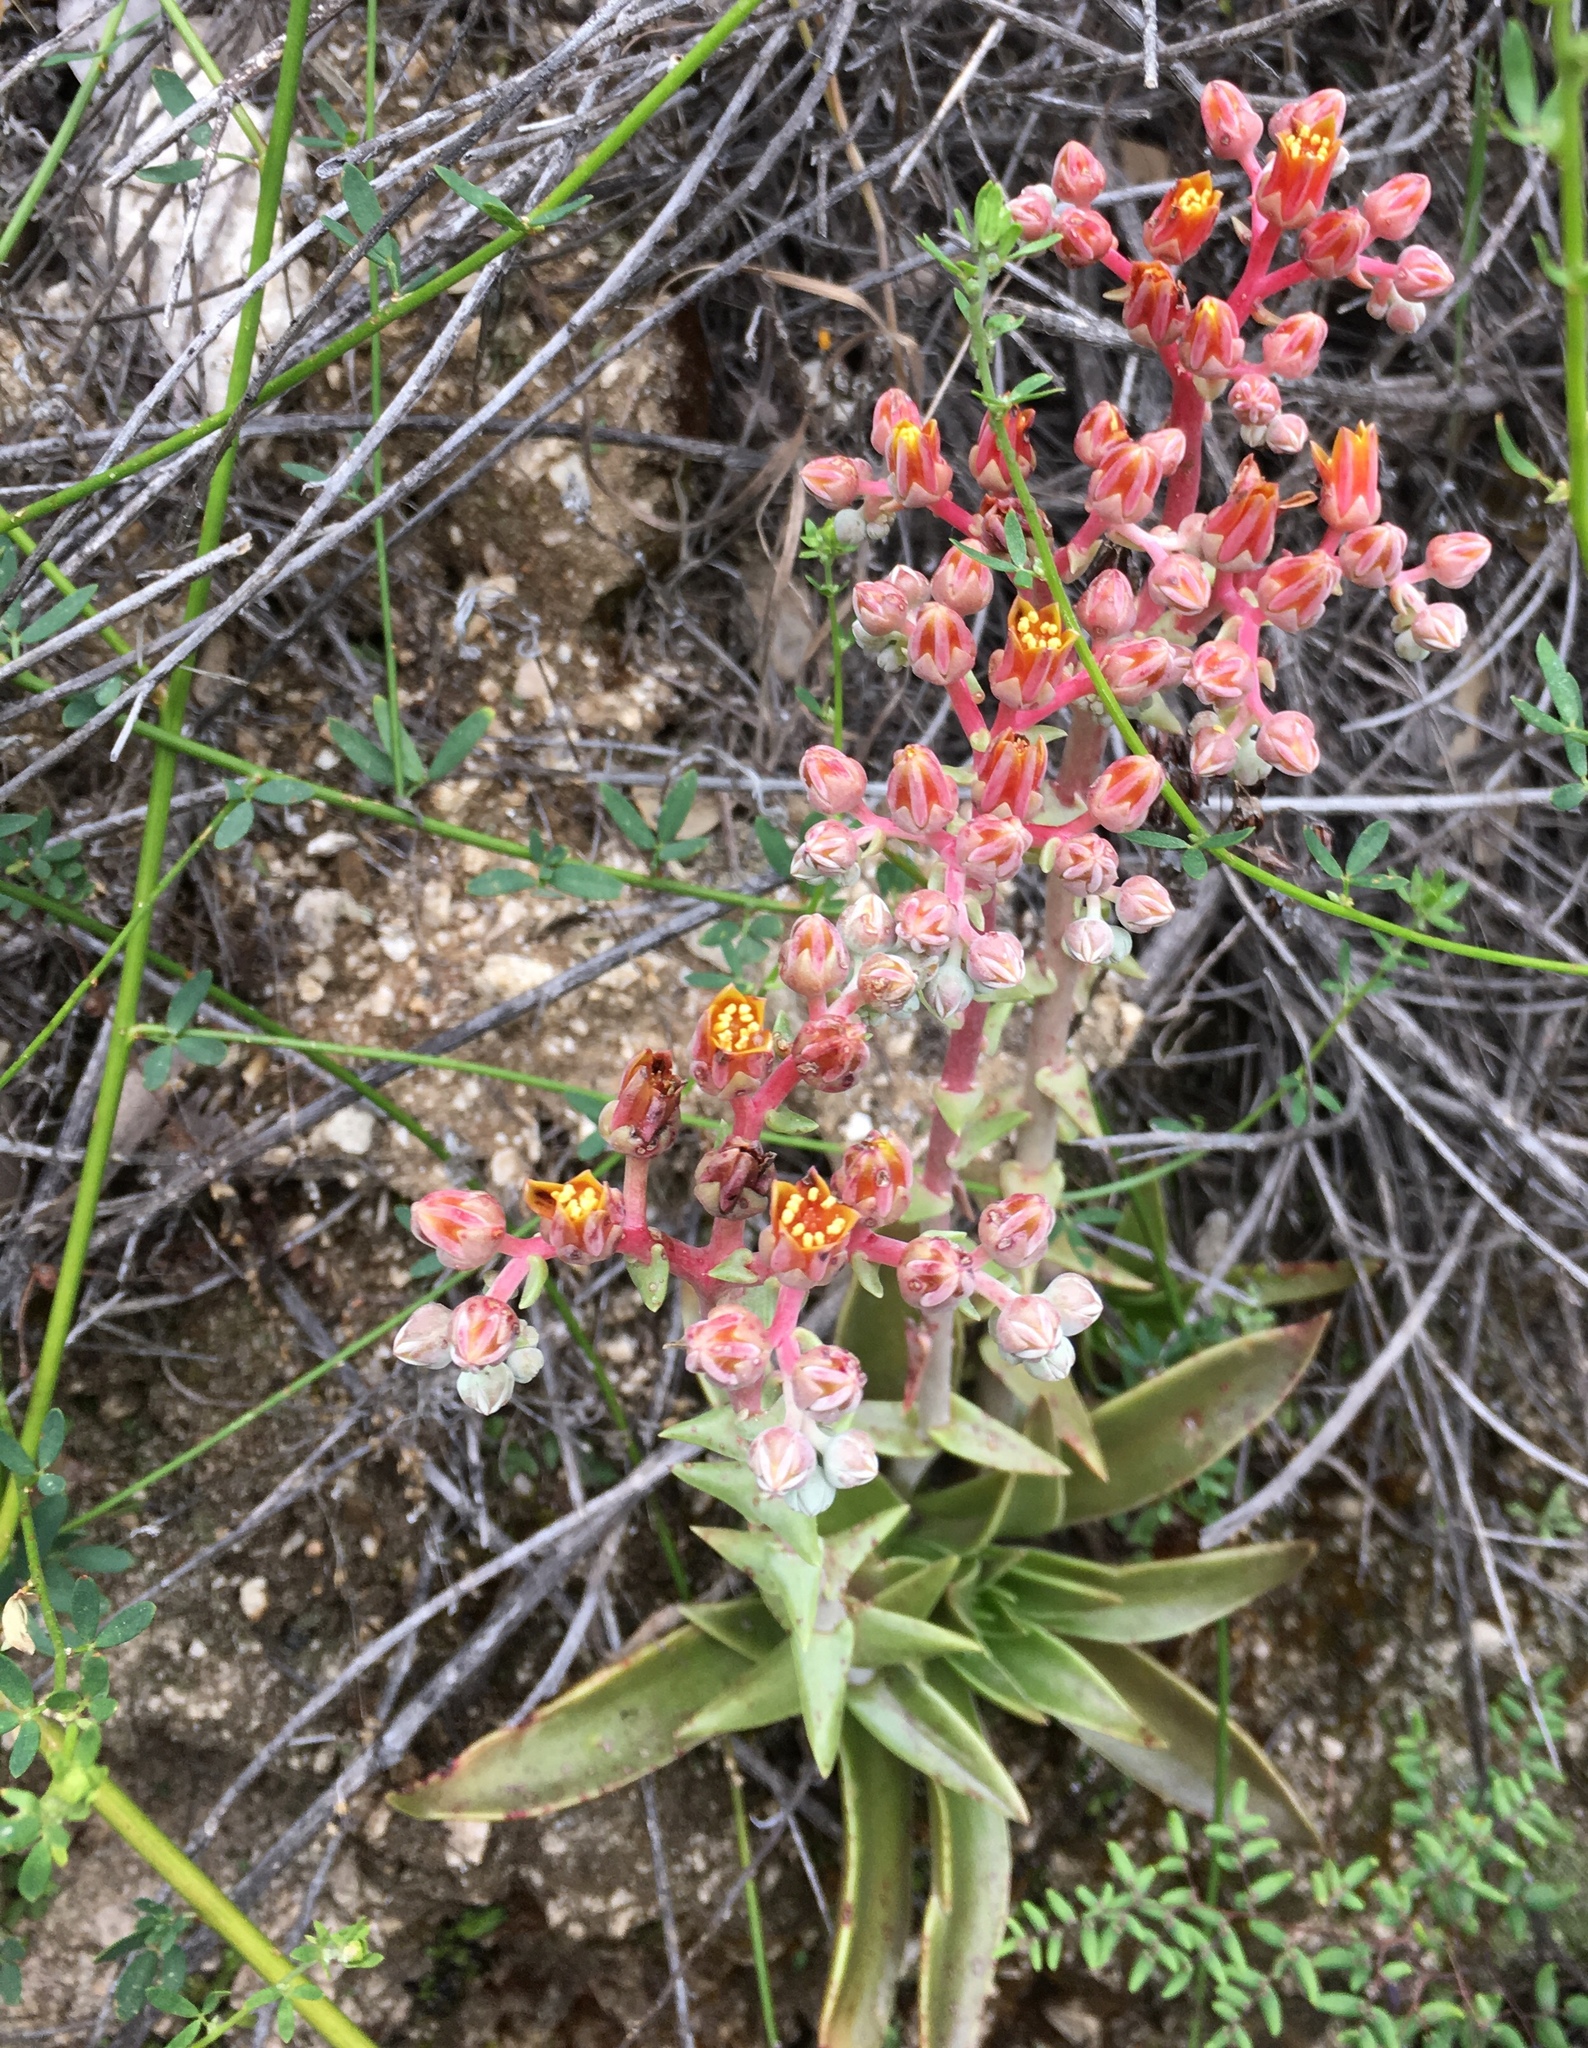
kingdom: Plantae
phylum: Tracheophyta
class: Magnoliopsida
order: Saxifragales
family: Crassulaceae
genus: Dudleya
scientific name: Dudleya lanceolata
